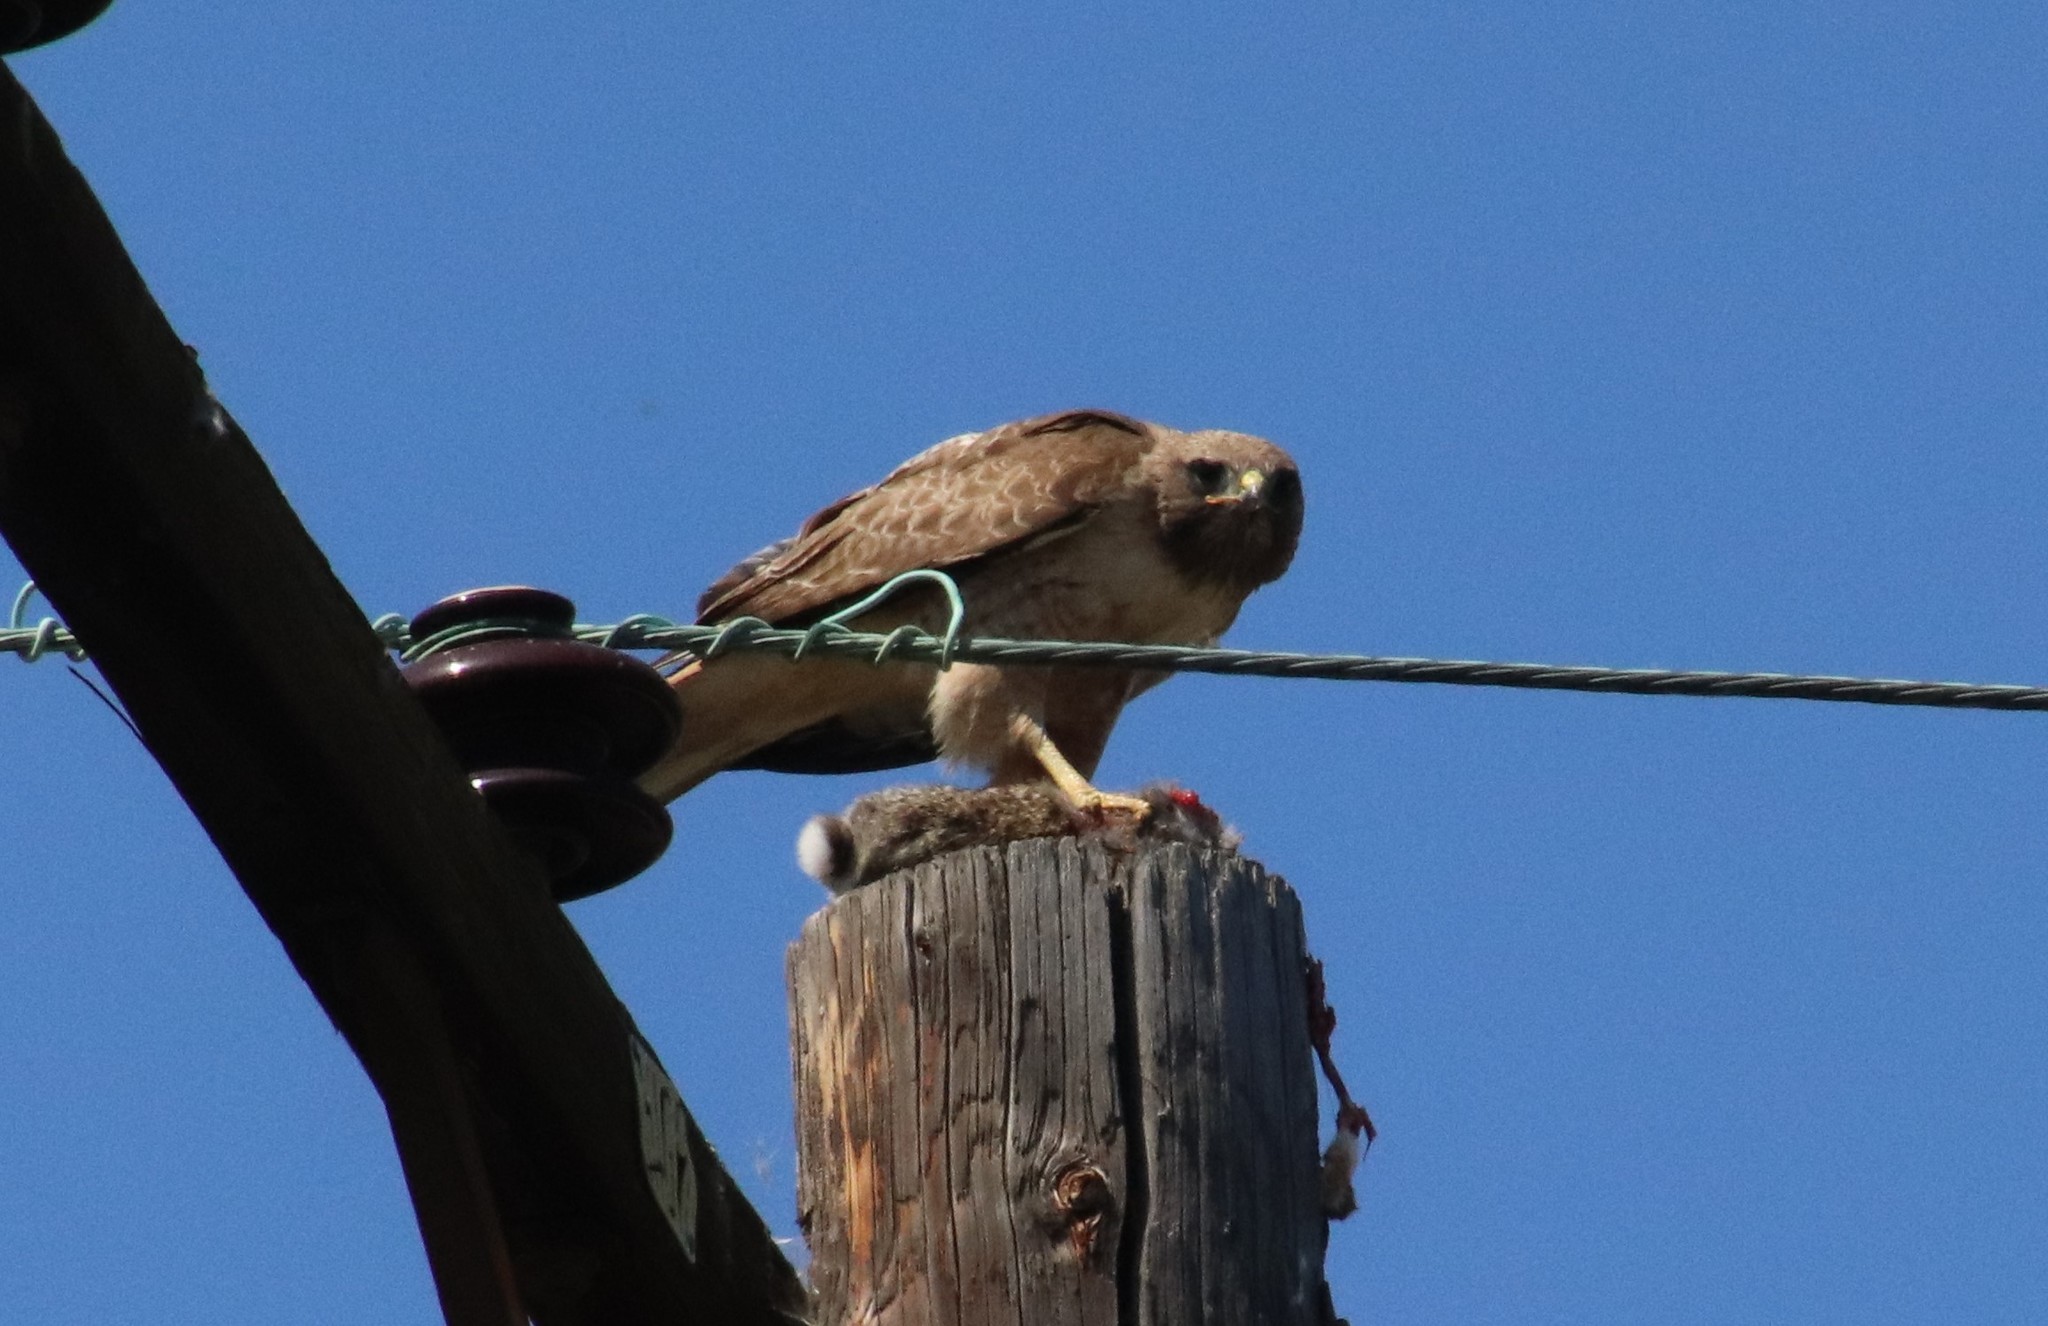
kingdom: Animalia
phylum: Chordata
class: Aves
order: Accipitriformes
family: Accipitridae
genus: Buteo
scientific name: Buteo jamaicensis
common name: Red-tailed hawk
